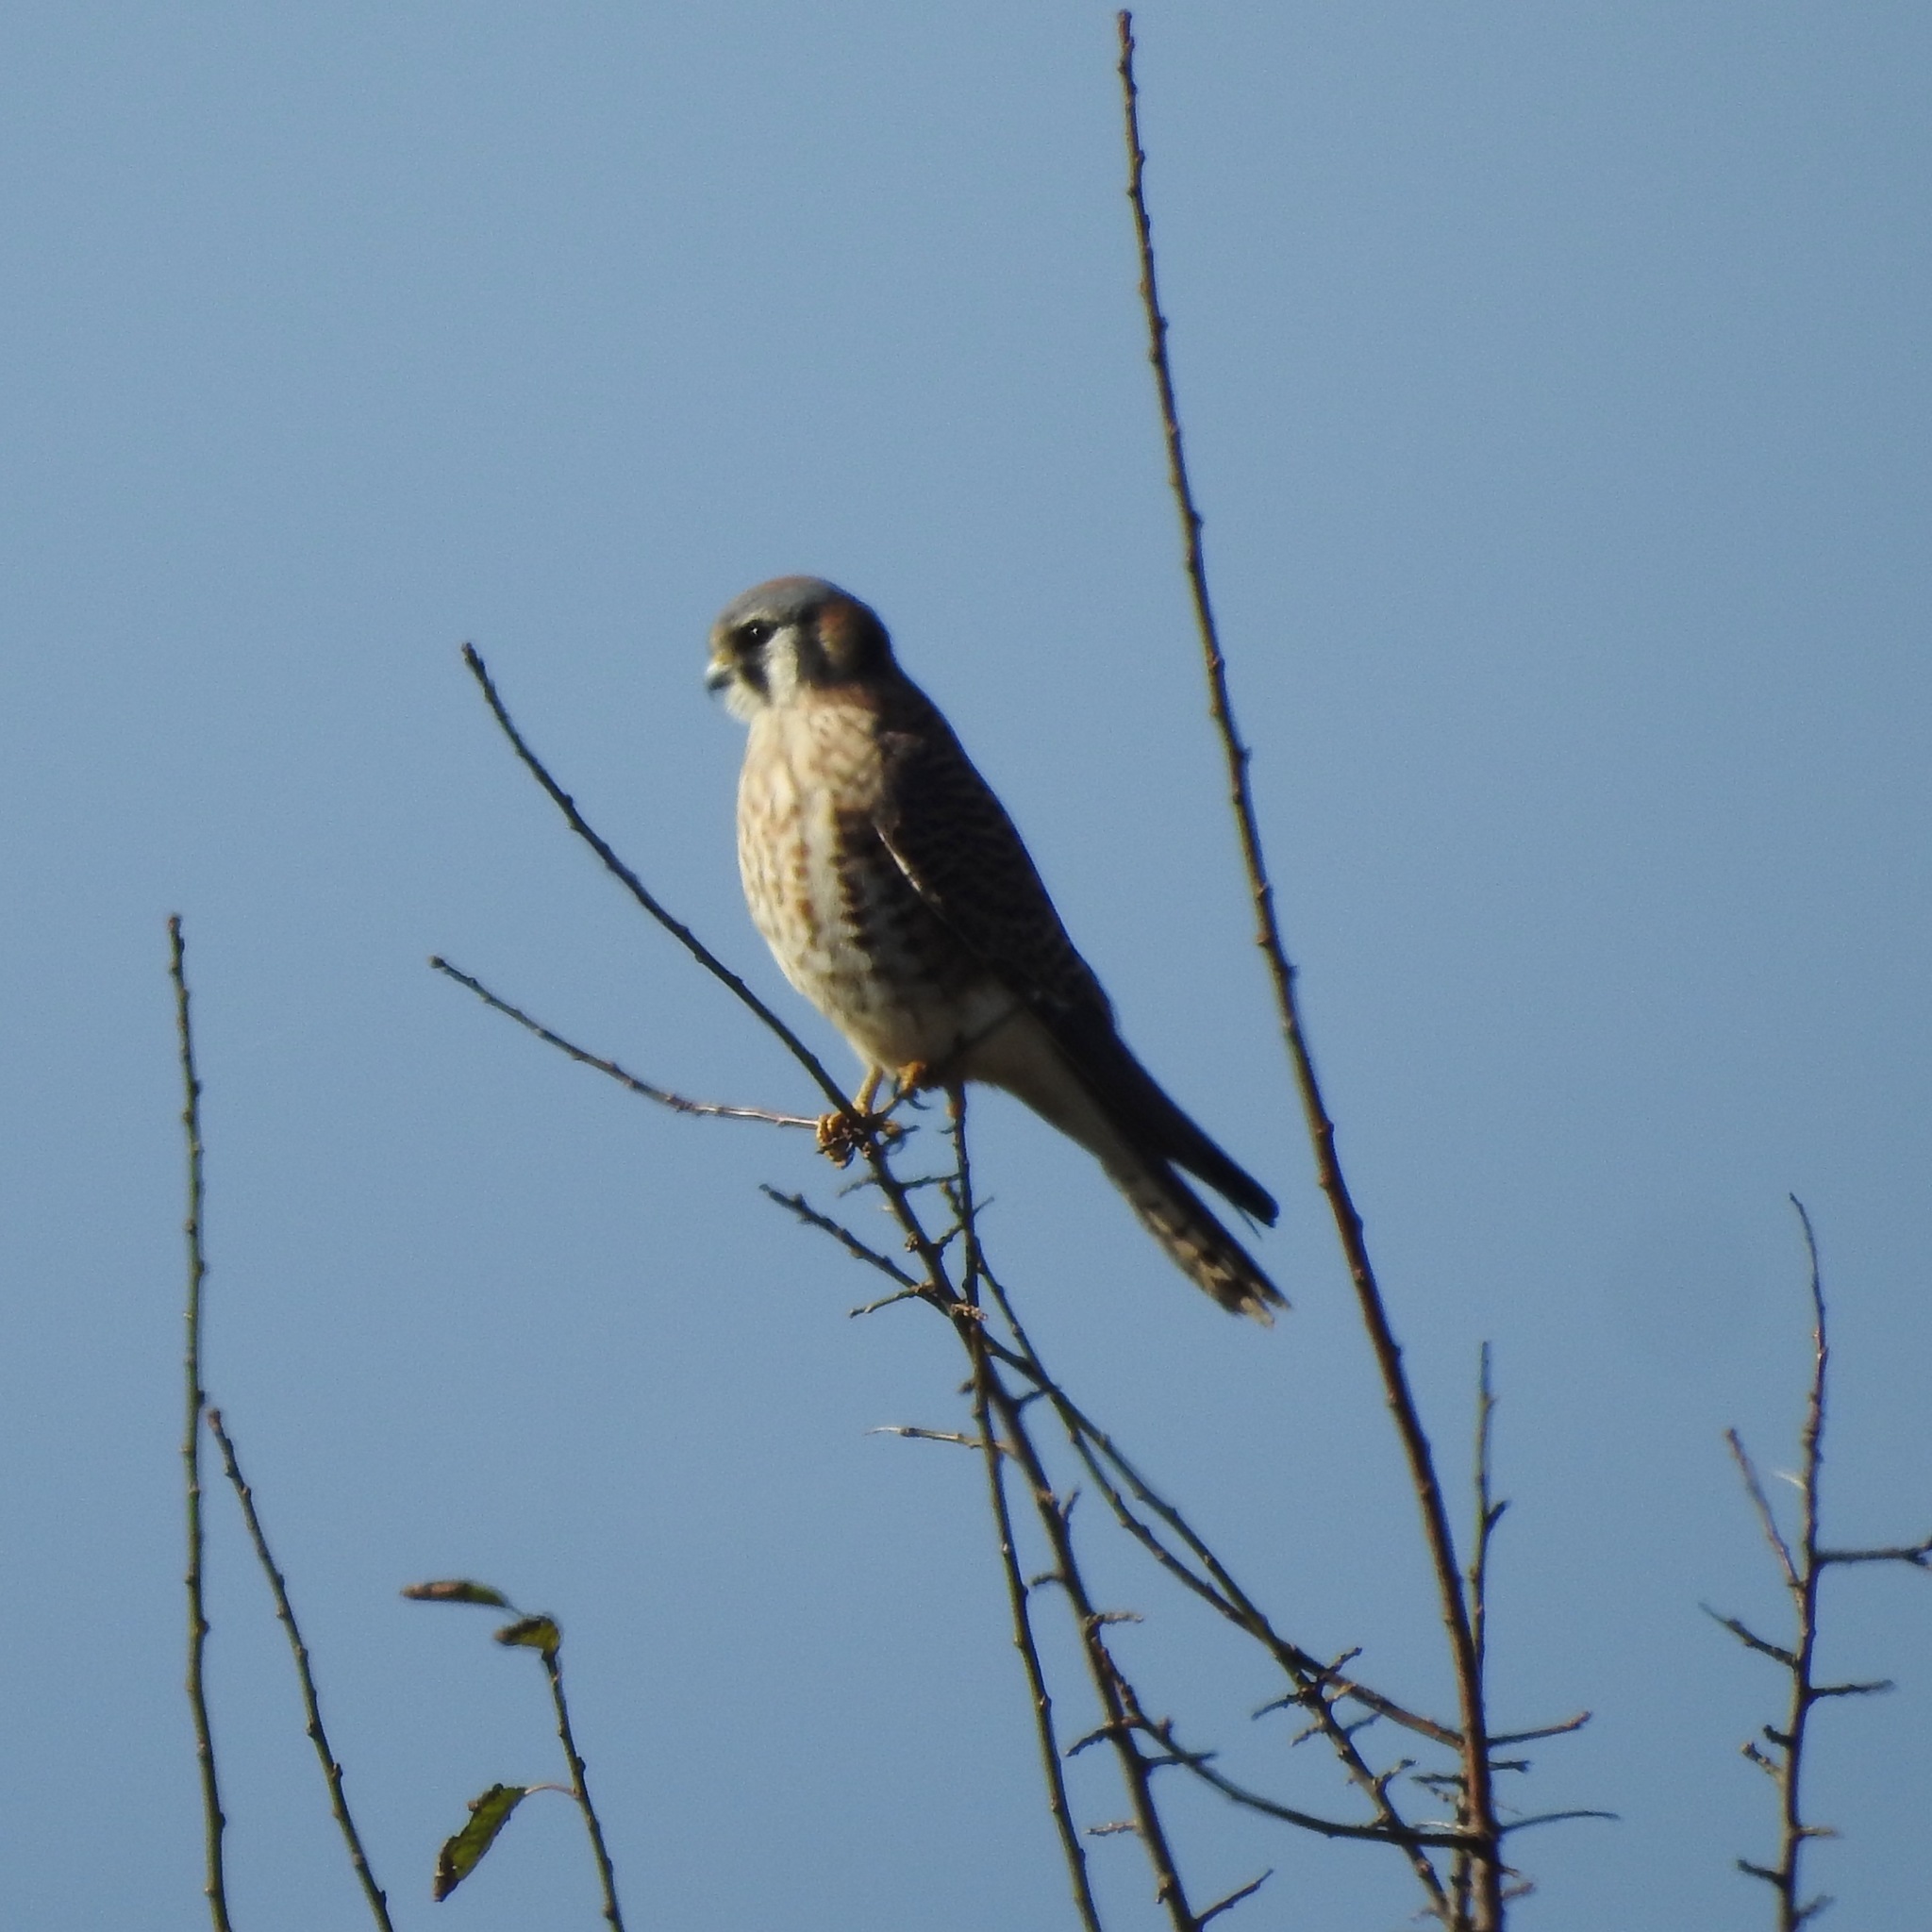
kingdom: Animalia
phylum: Chordata
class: Aves
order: Falconiformes
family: Falconidae
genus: Falco
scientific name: Falco sparverius
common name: American kestrel
